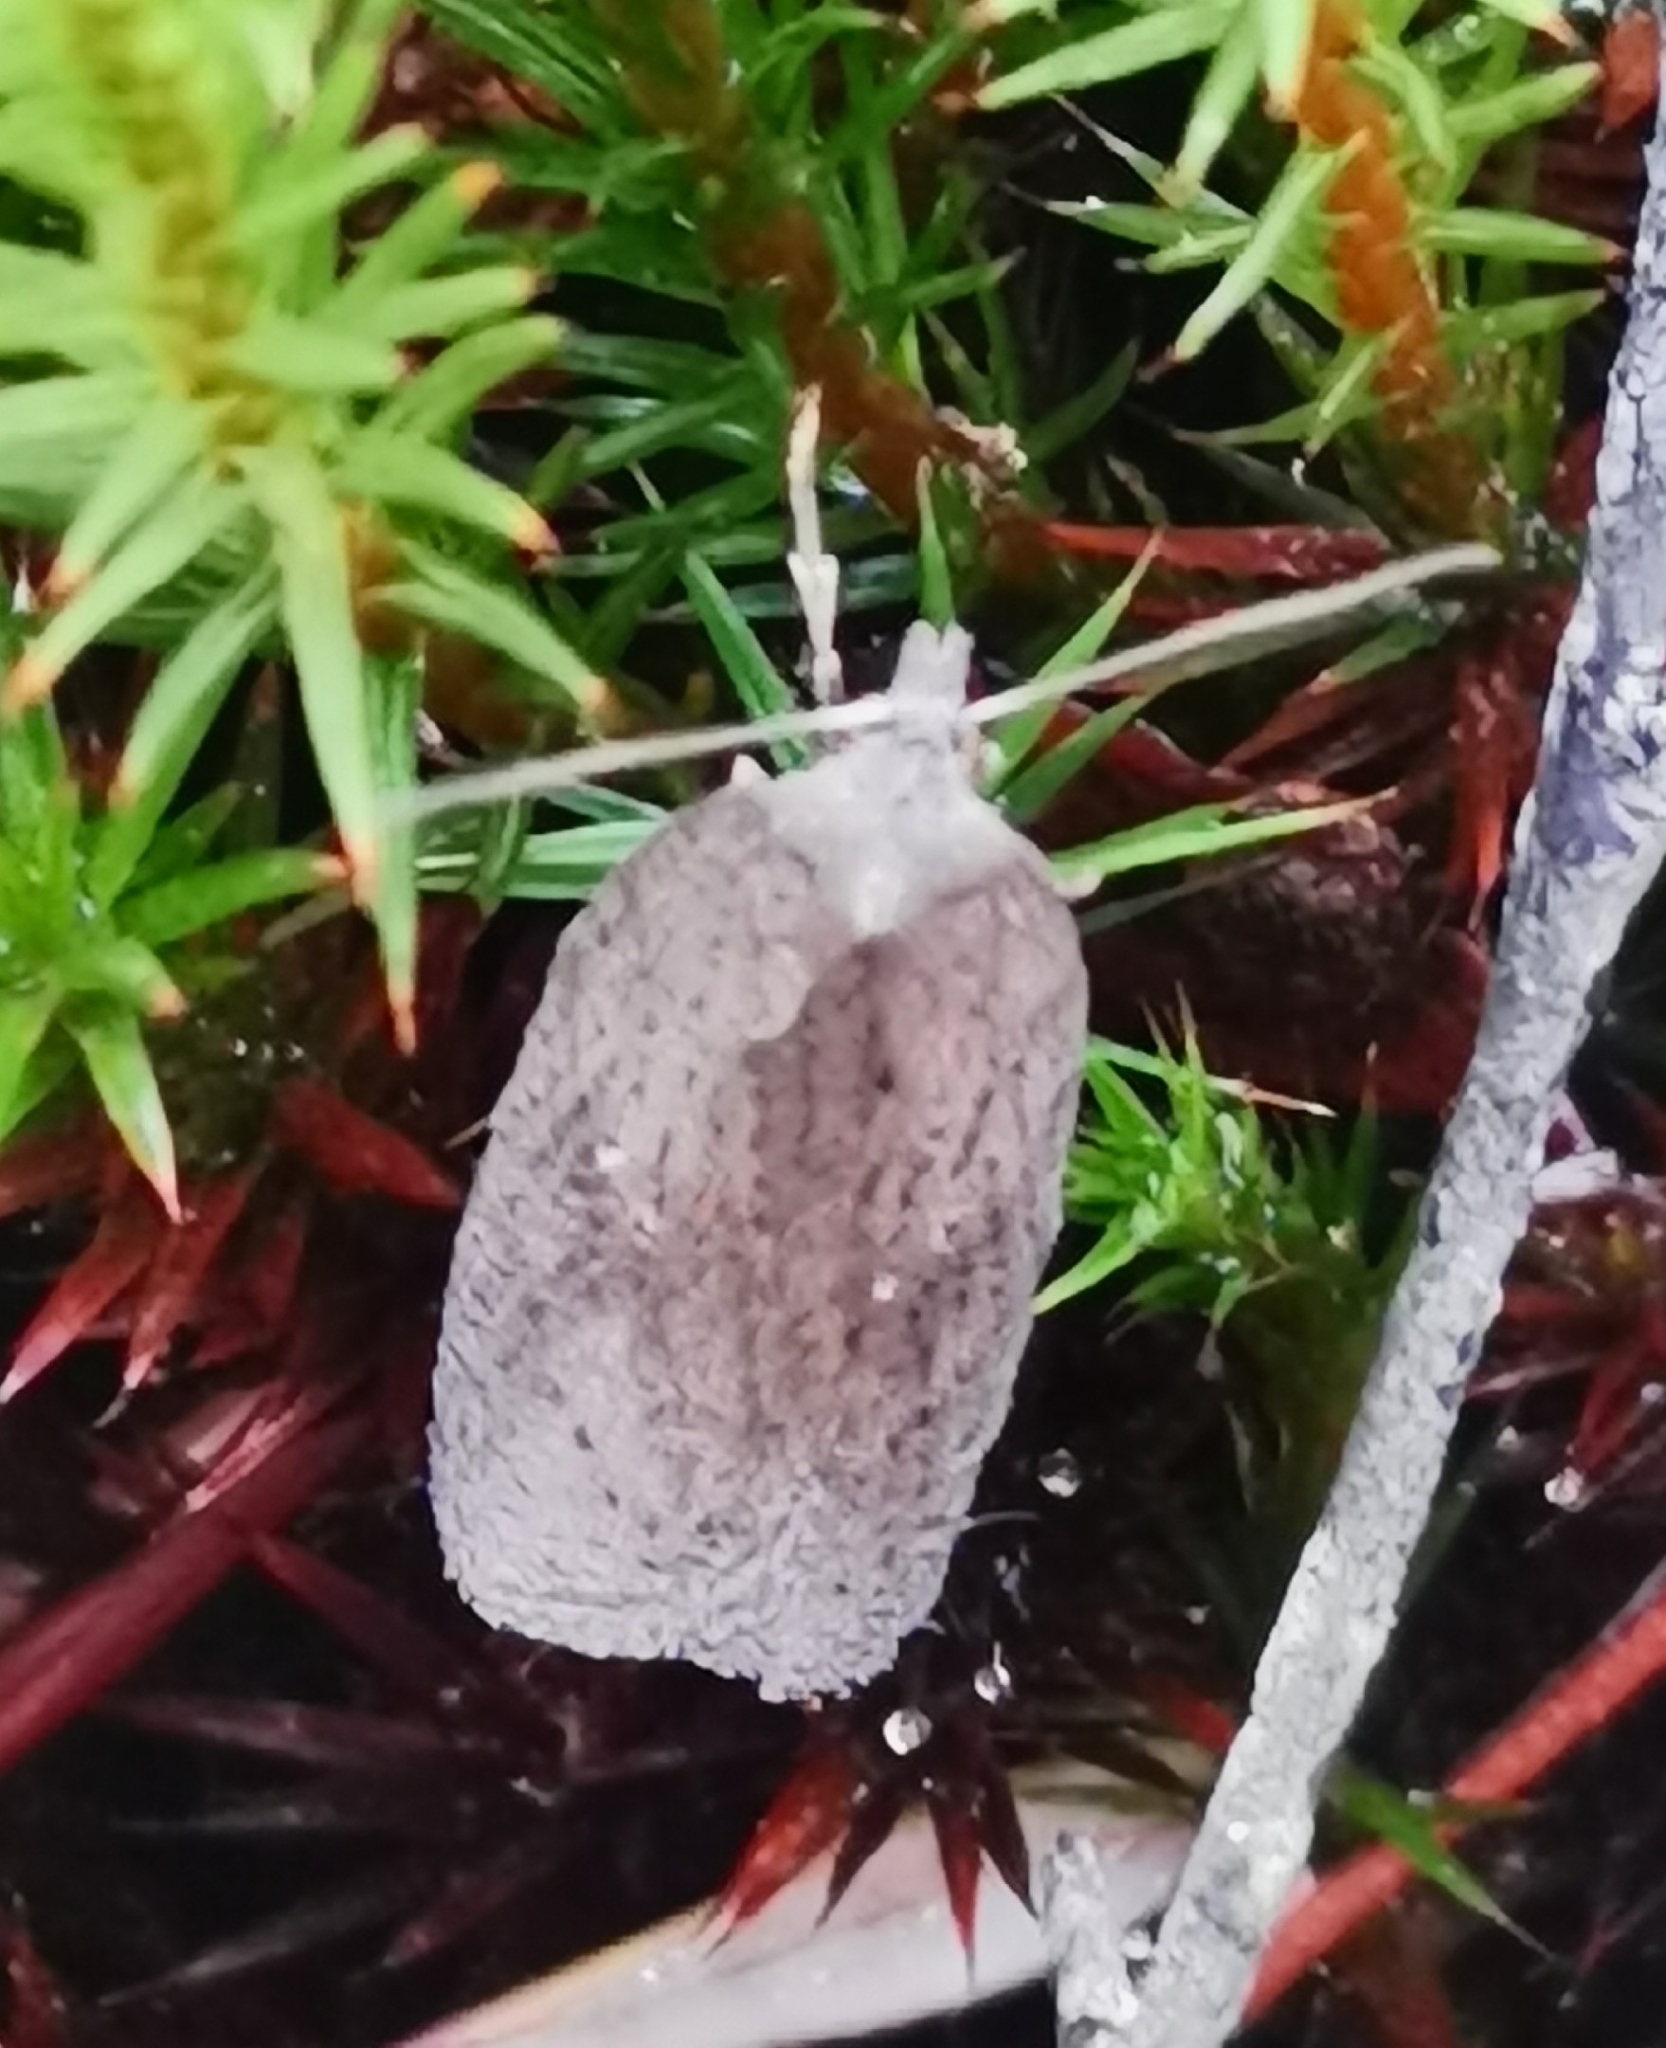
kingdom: Animalia
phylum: Arthropoda
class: Insecta
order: Lepidoptera
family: Tortricidae
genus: Acleris
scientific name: Acleris lipsiana
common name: Northern button
